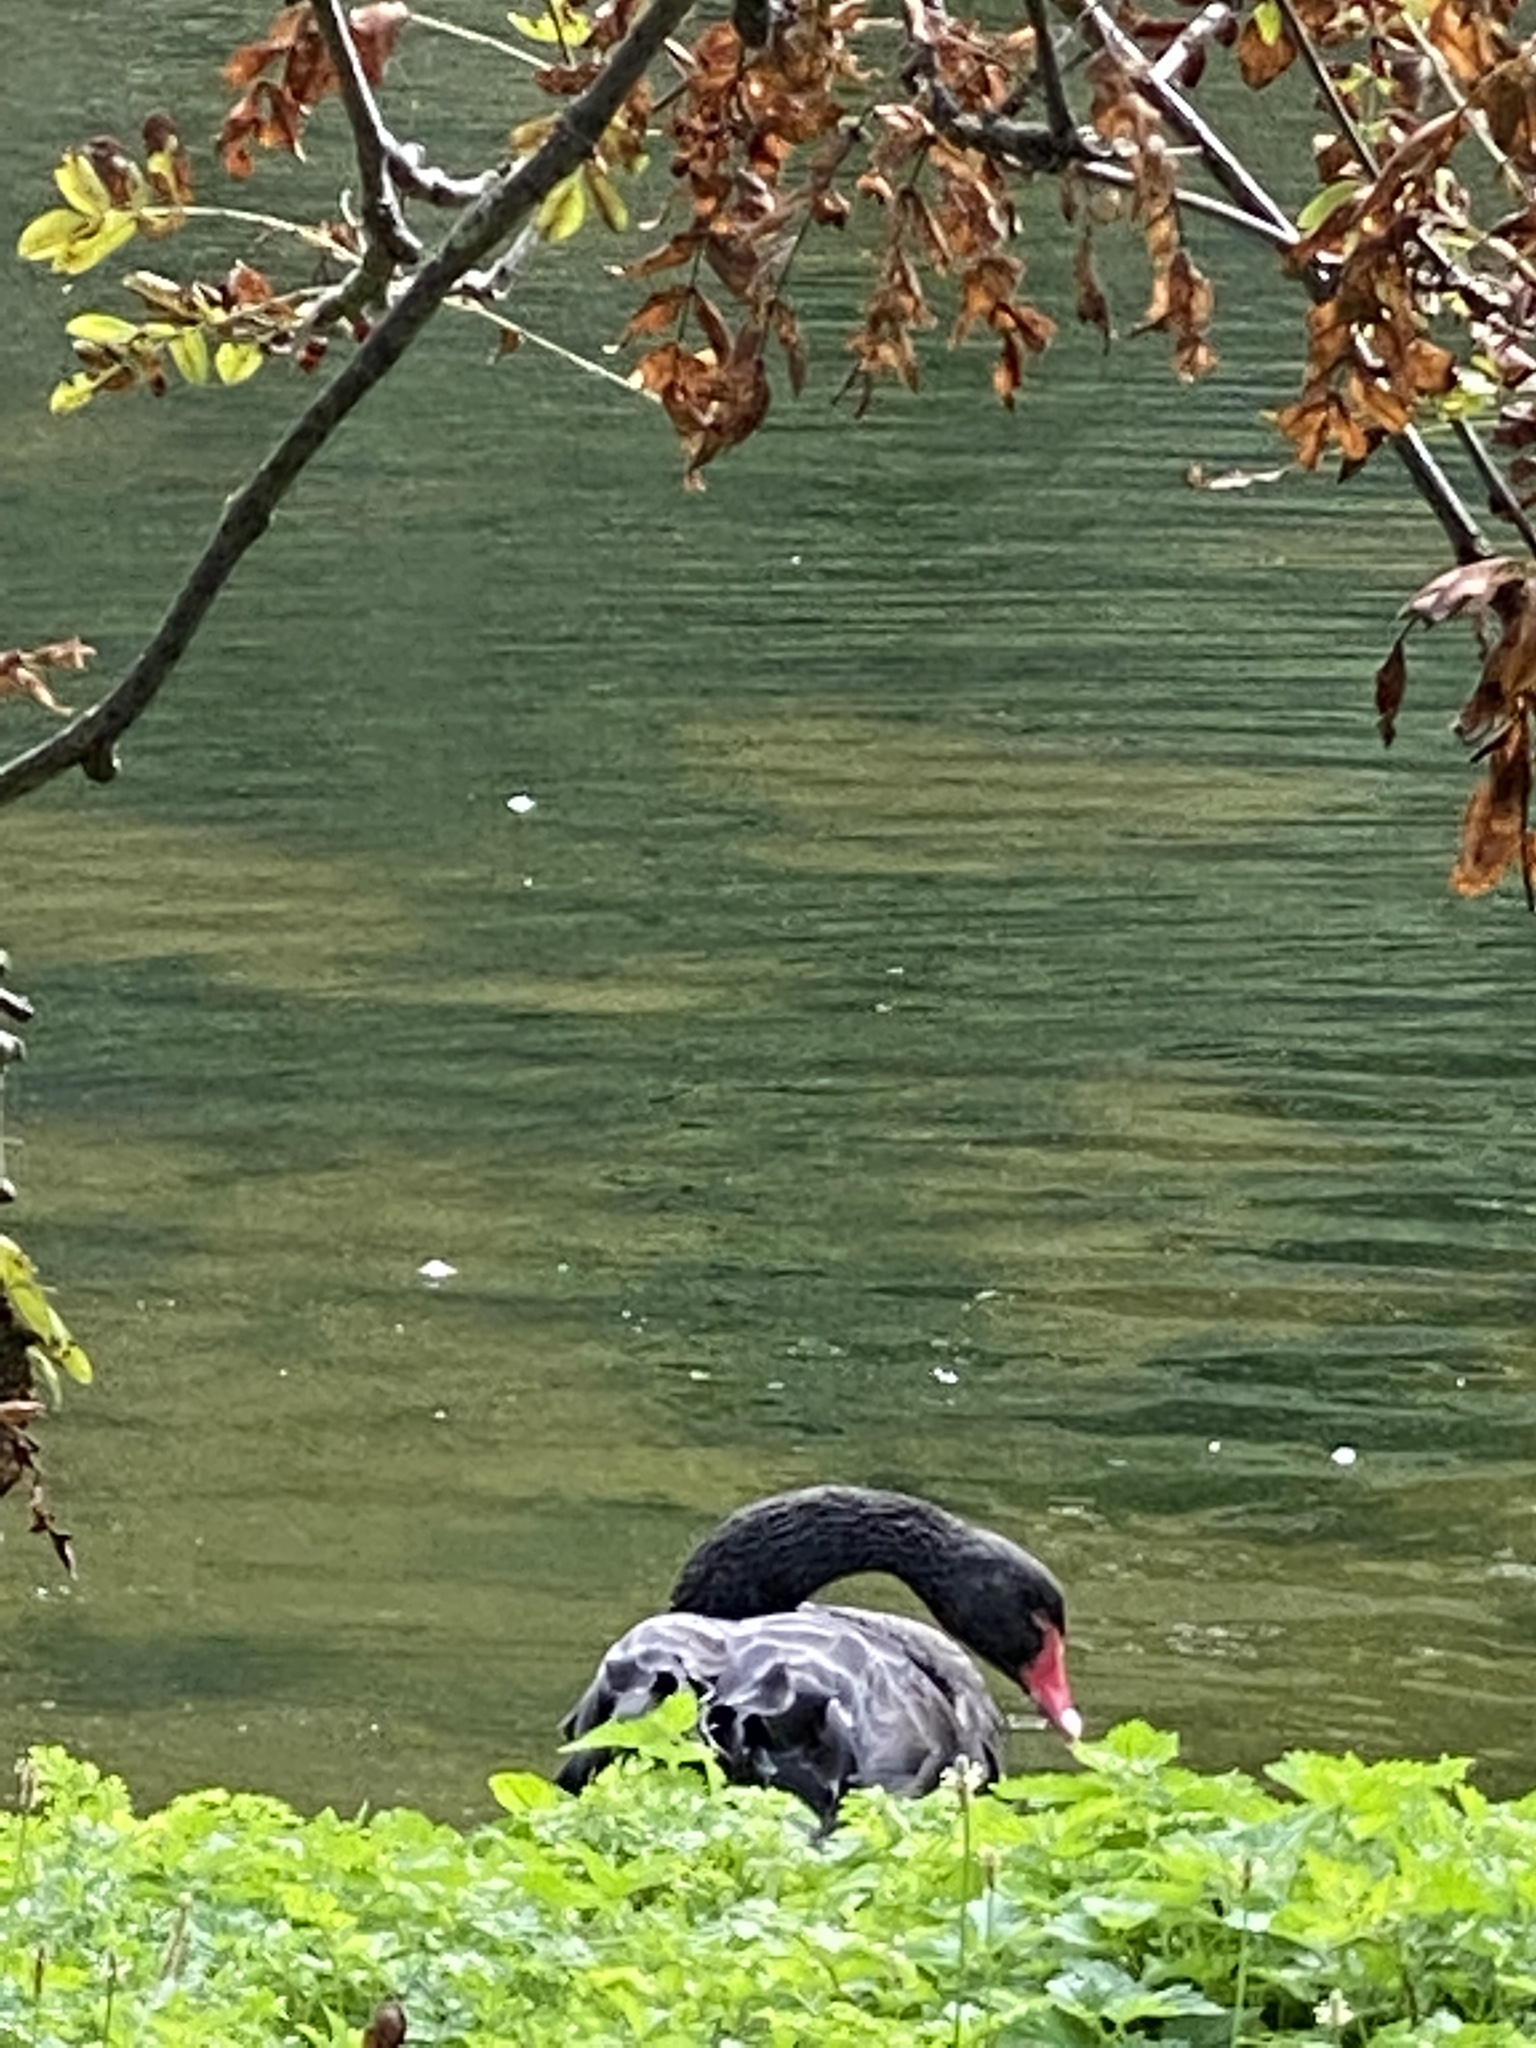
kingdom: Animalia
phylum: Chordata
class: Aves
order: Anseriformes
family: Anatidae
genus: Cygnus
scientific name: Cygnus atratus
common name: Black swan
